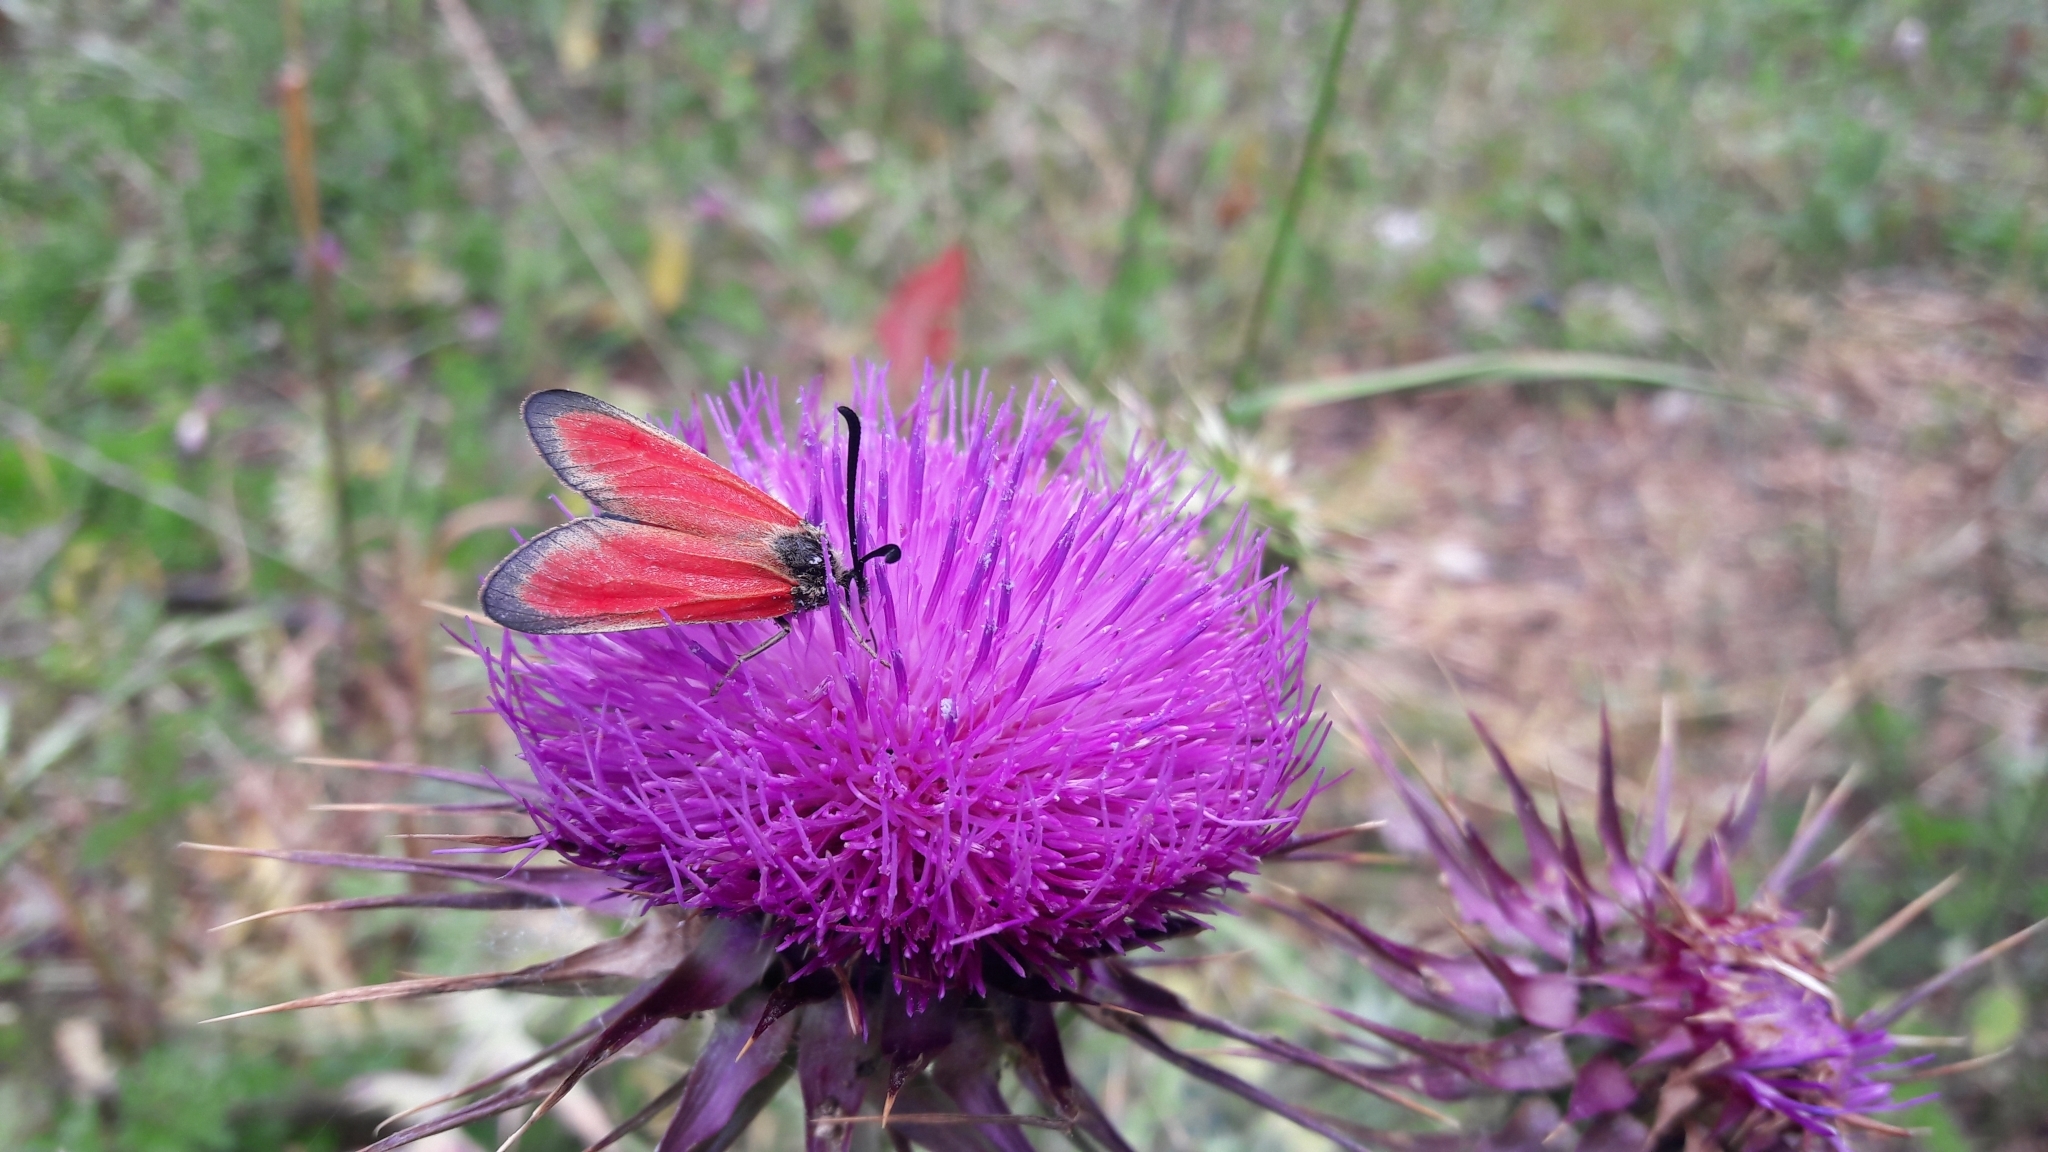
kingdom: Animalia
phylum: Arthropoda
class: Insecta
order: Lepidoptera
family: Zygaenidae
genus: Zygaena
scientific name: Zygaena rubicundus
